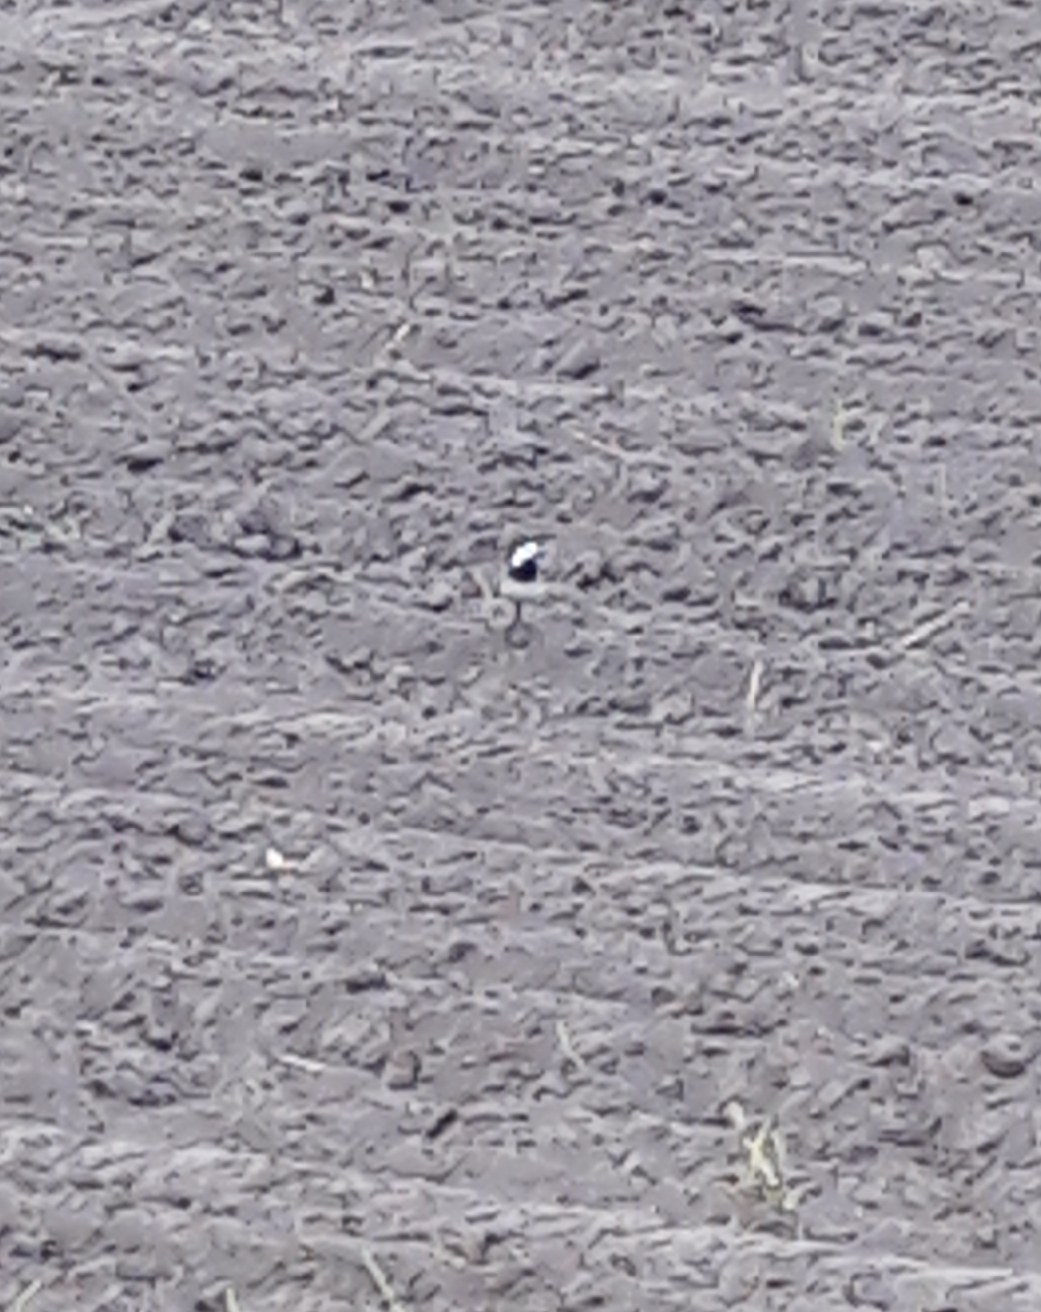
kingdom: Animalia
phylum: Chordata
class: Aves
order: Passeriformes
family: Motacillidae
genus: Motacilla
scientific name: Motacilla alba
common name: White wagtail
